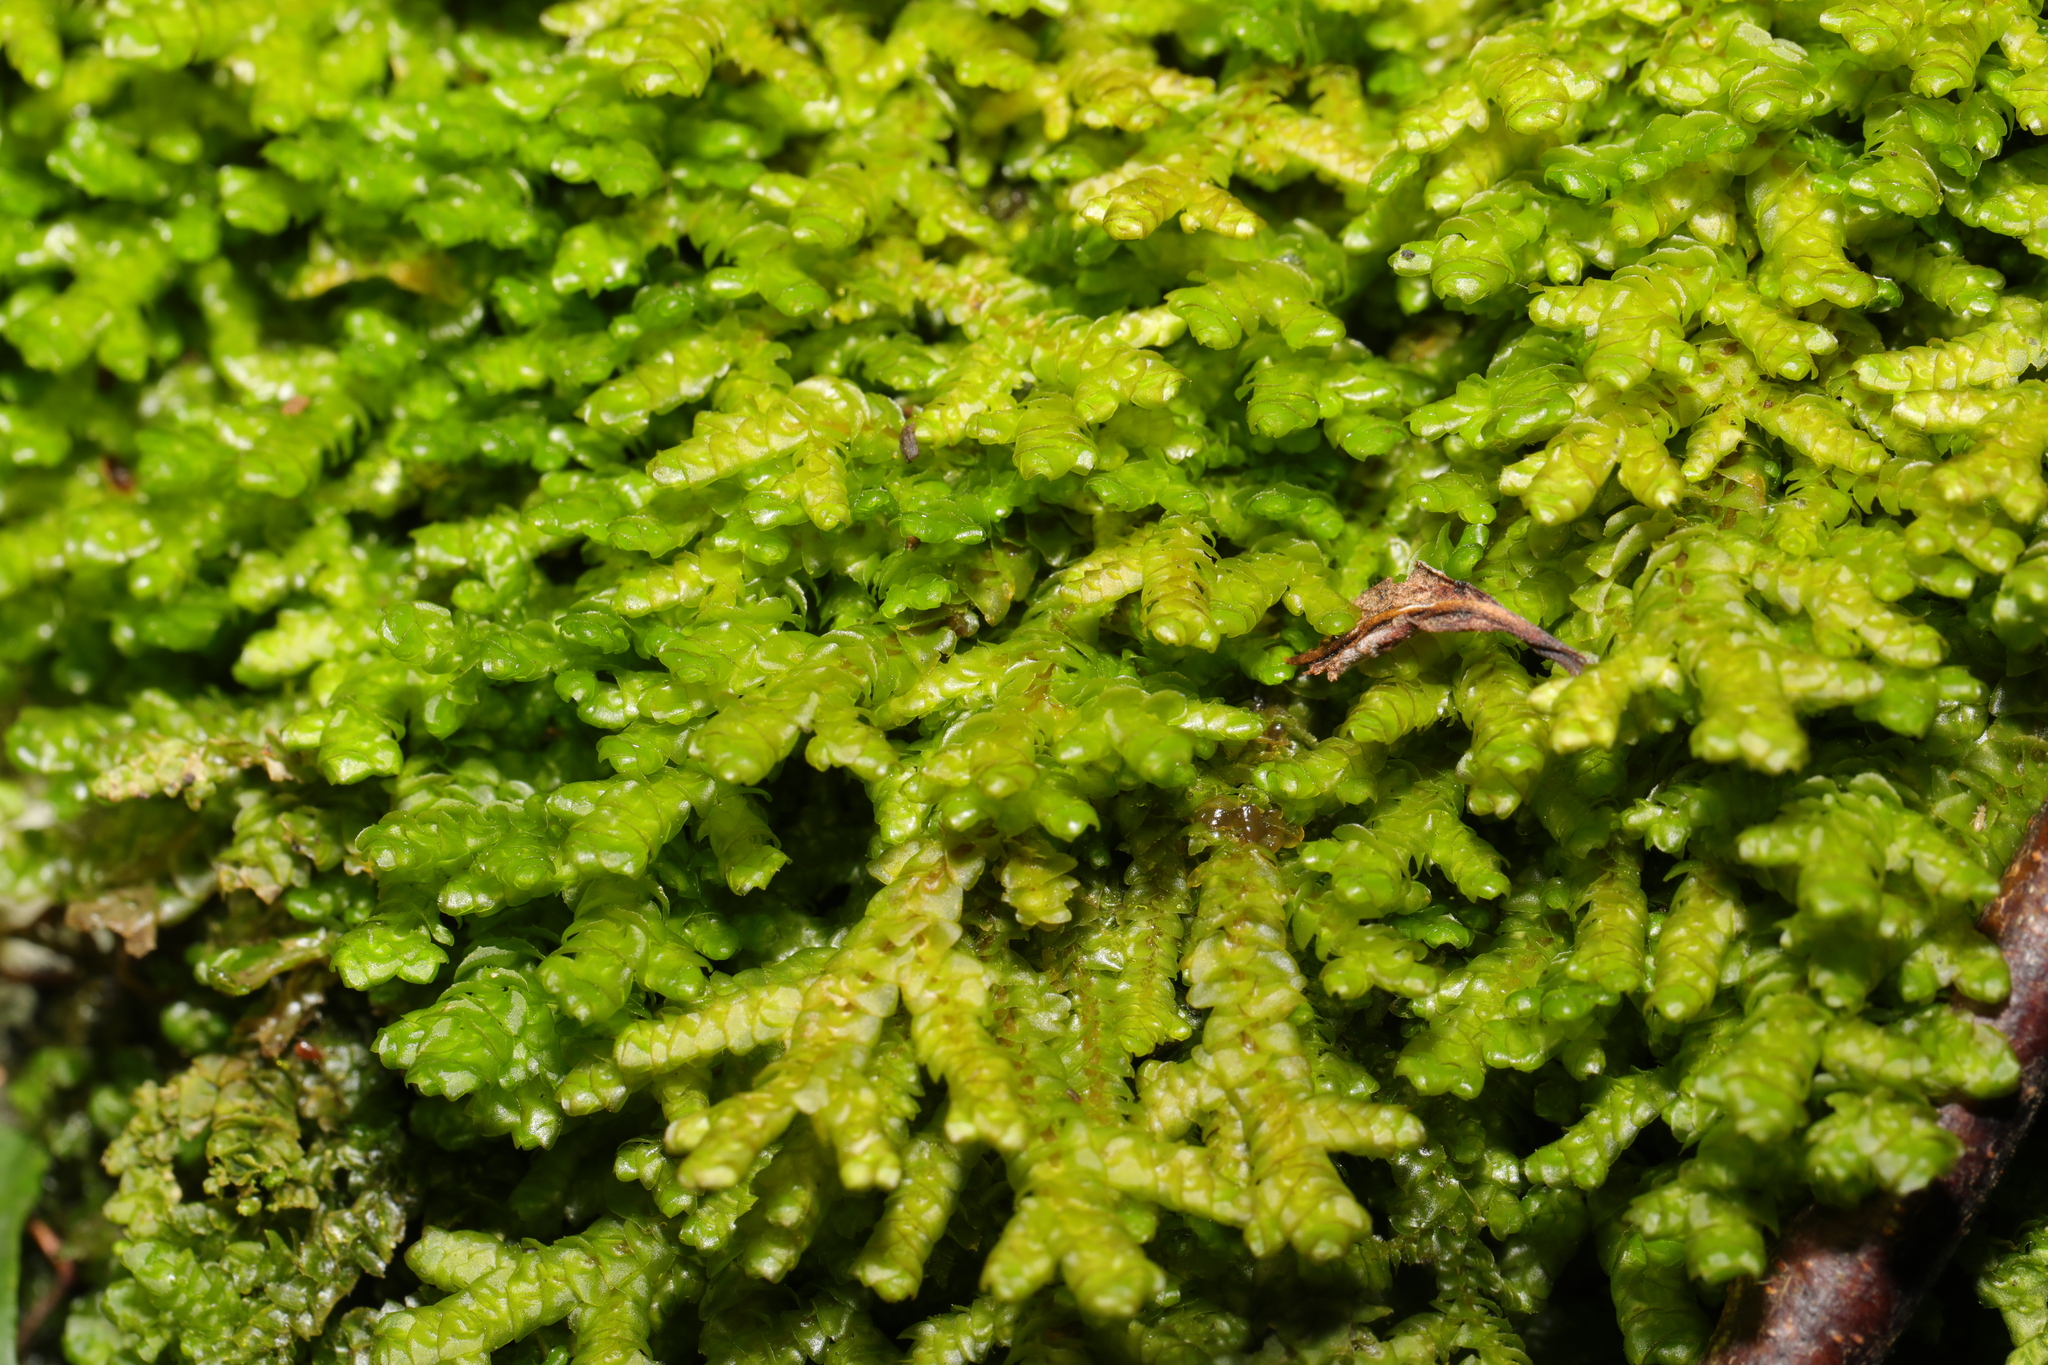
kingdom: Plantae
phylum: Marchantiophyta
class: Jungermanniopsida
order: Porellales
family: Porellaceae
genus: Porella
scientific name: Porella platyphylla
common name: Wall scalewort
